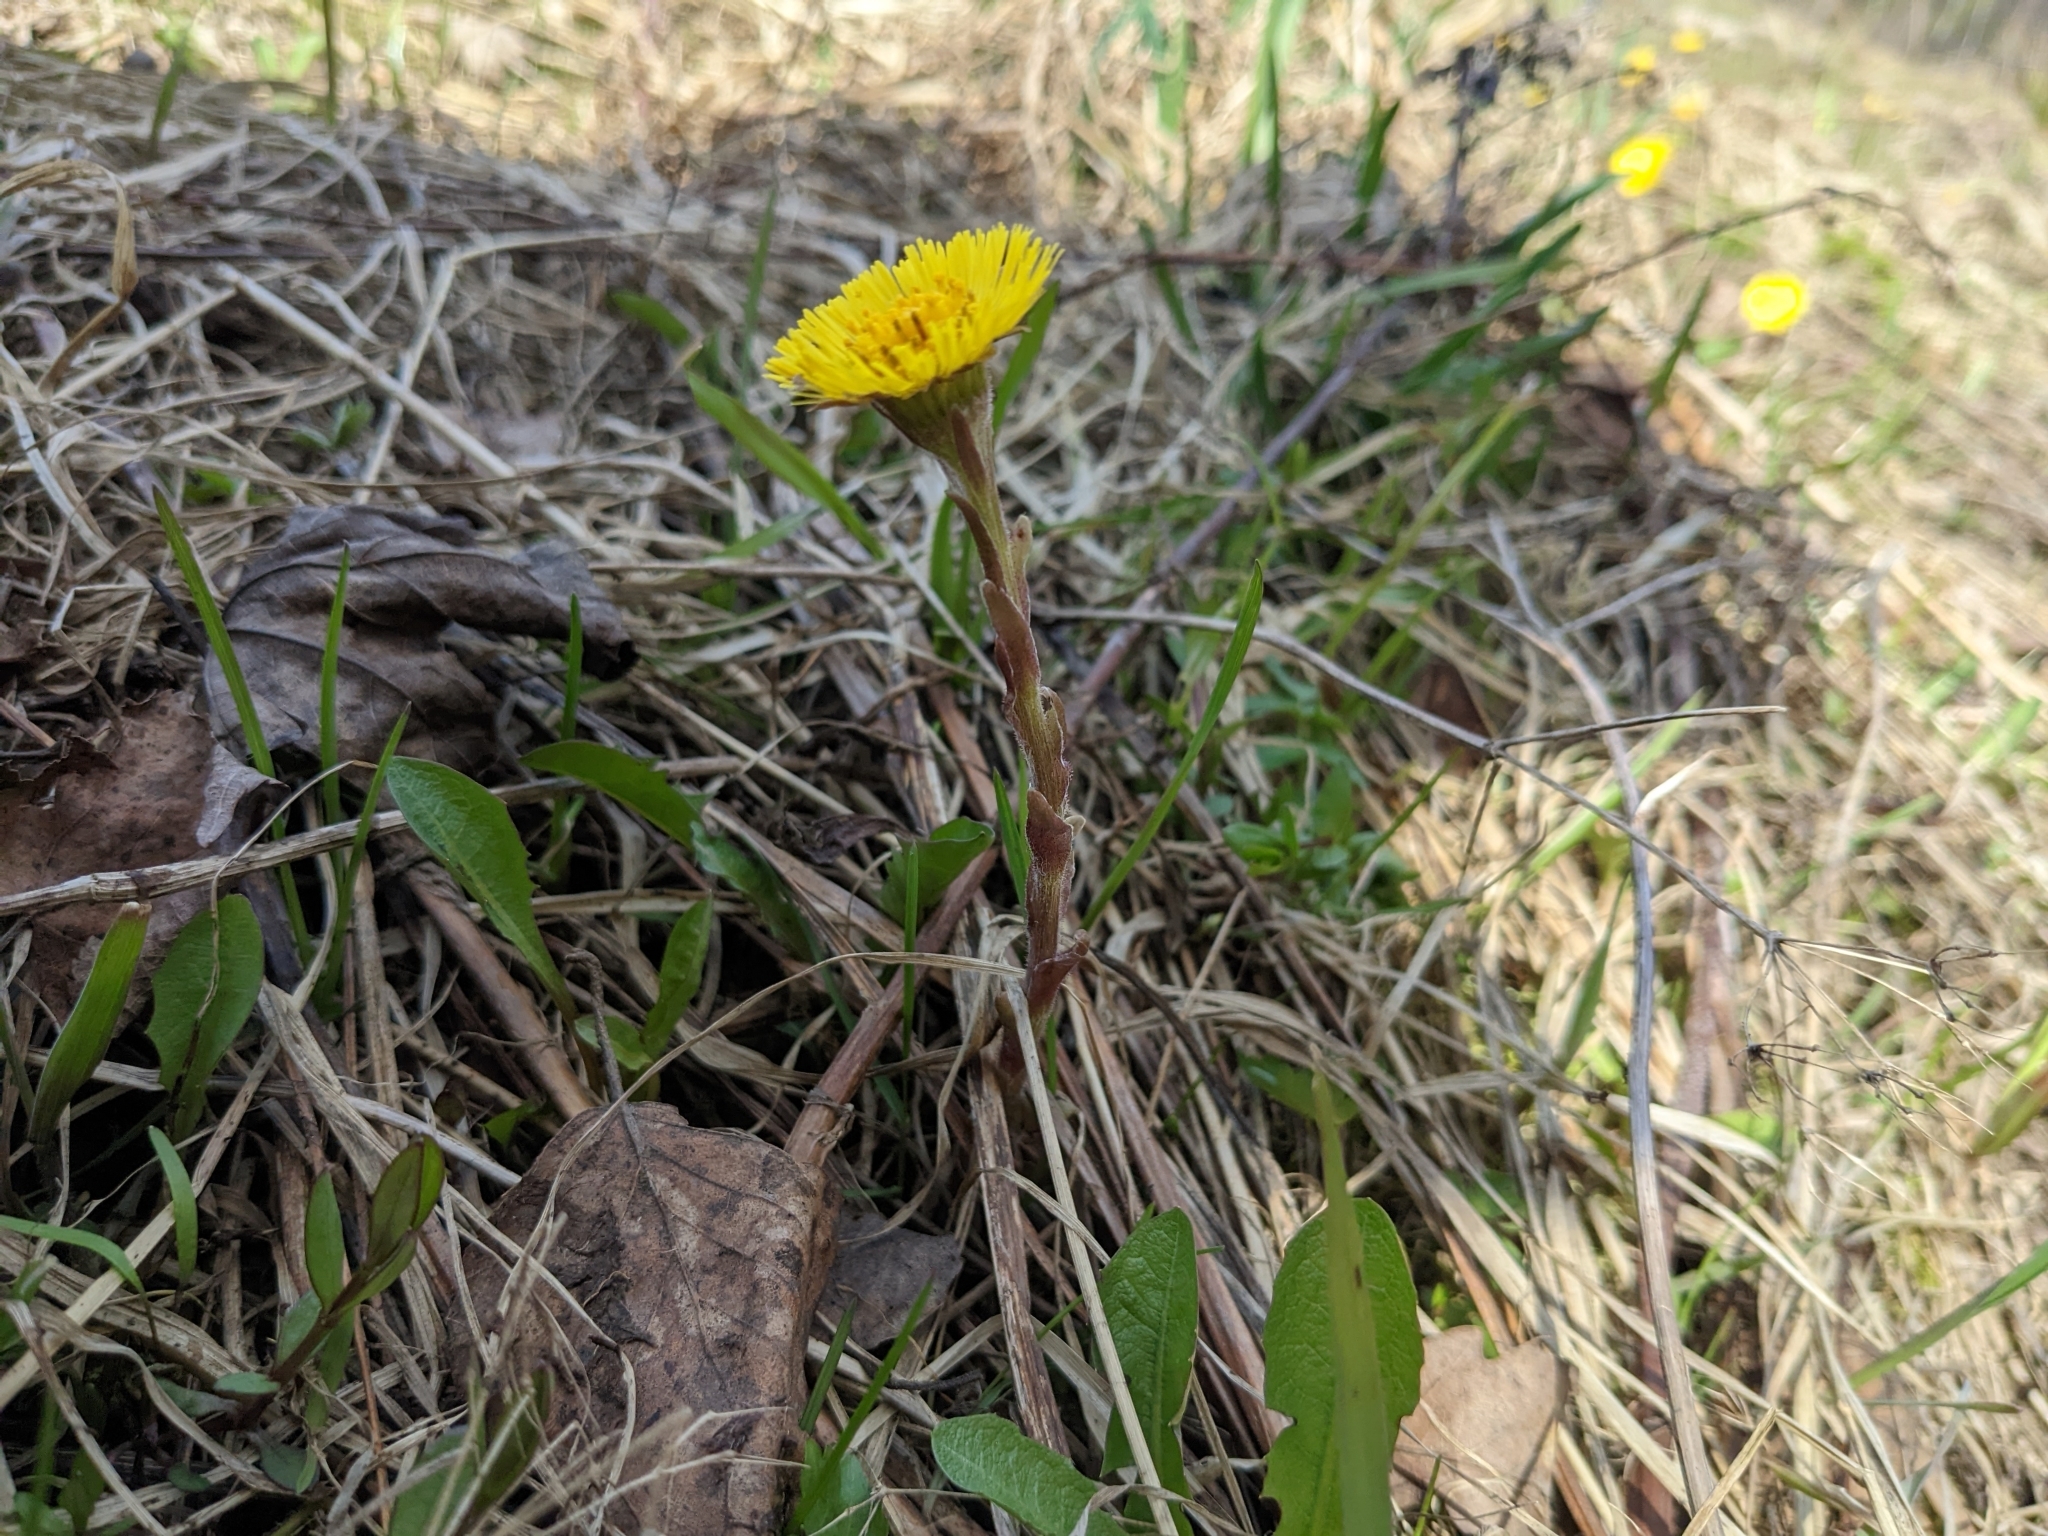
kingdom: Plantae
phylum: Tracheophyta
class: Magnoliopsida
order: Asterales
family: Asteraceae
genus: Tussilago
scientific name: Tussilago farfara
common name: Coltsfoot
